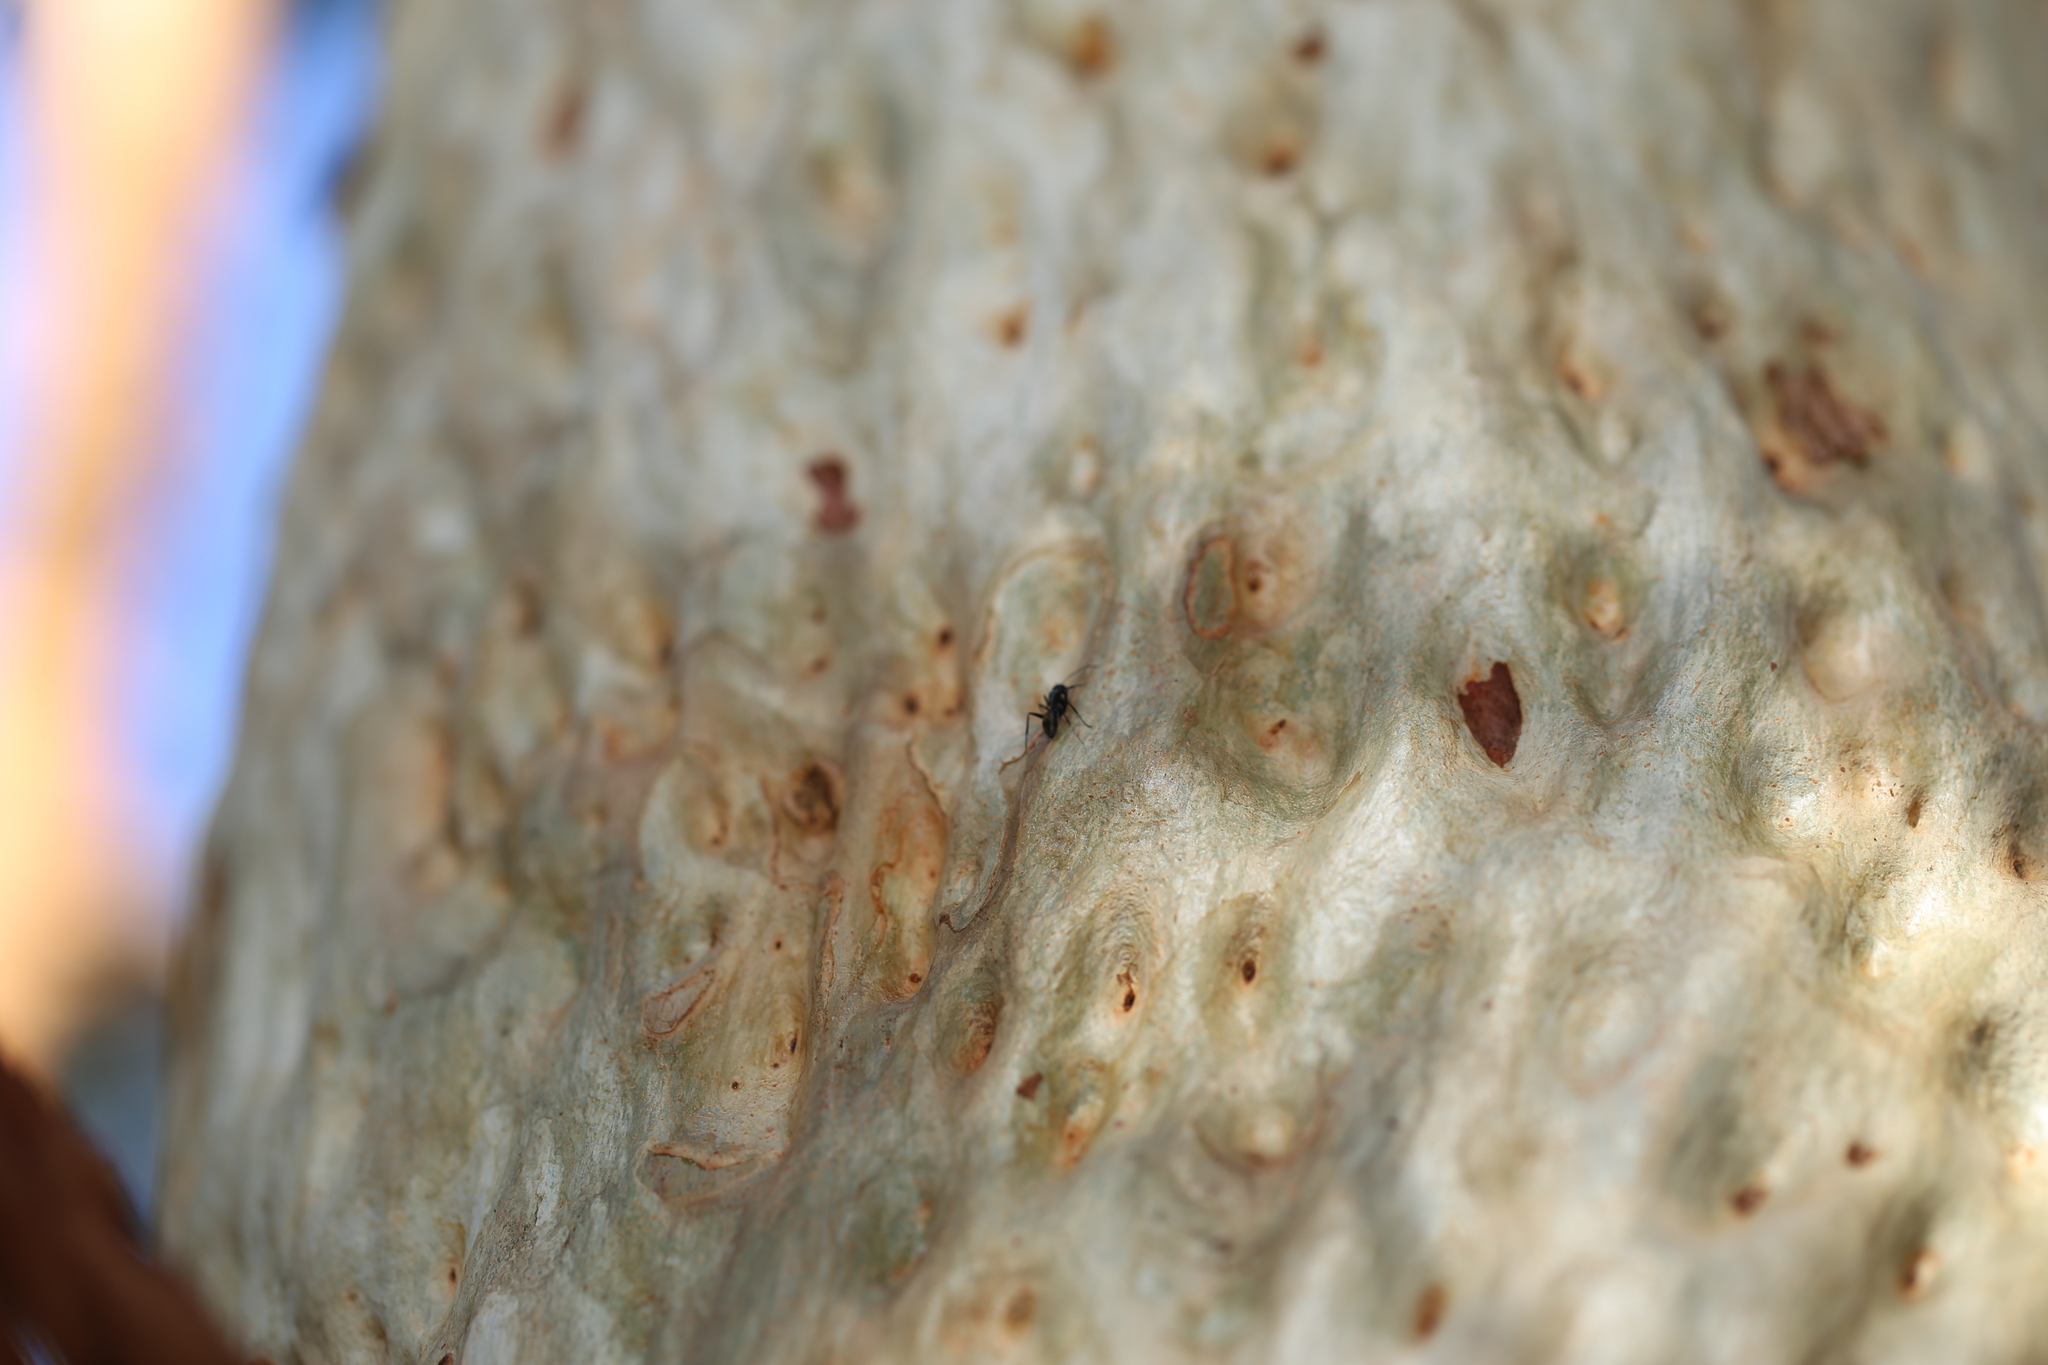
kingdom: Animalia
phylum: Arthropoda
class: Insecta
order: Hymenoptera
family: Formicidae
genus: Camponotus
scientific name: Camponotus aeneopilosus
